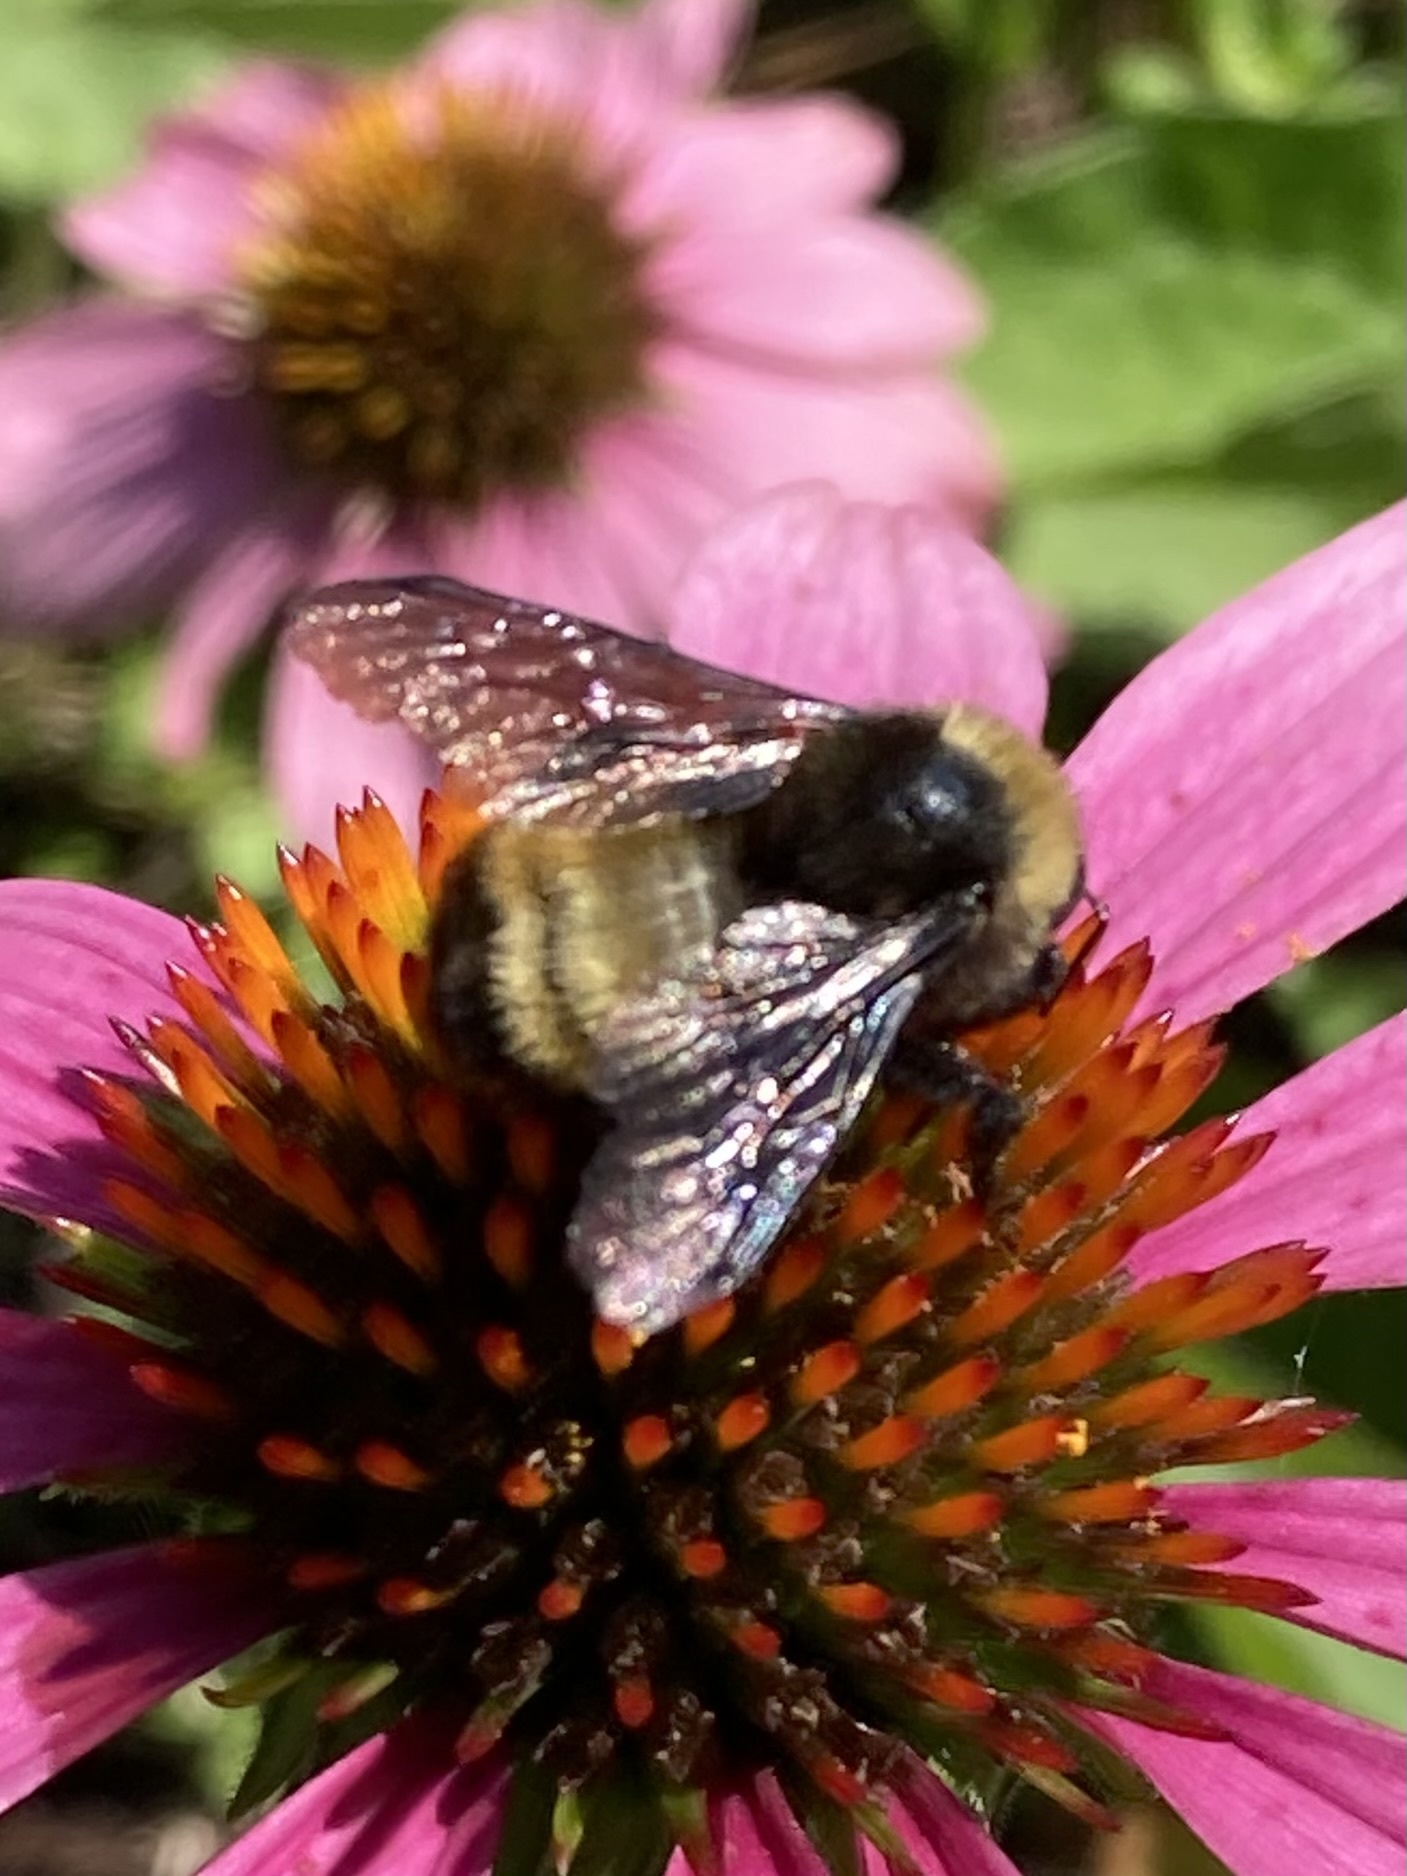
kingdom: Animalia
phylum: Arthropoda
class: Insecta
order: Hymenoptera
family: Apidae
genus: Bombus
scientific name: Bombus pensylvanicus
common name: Bumble bee
